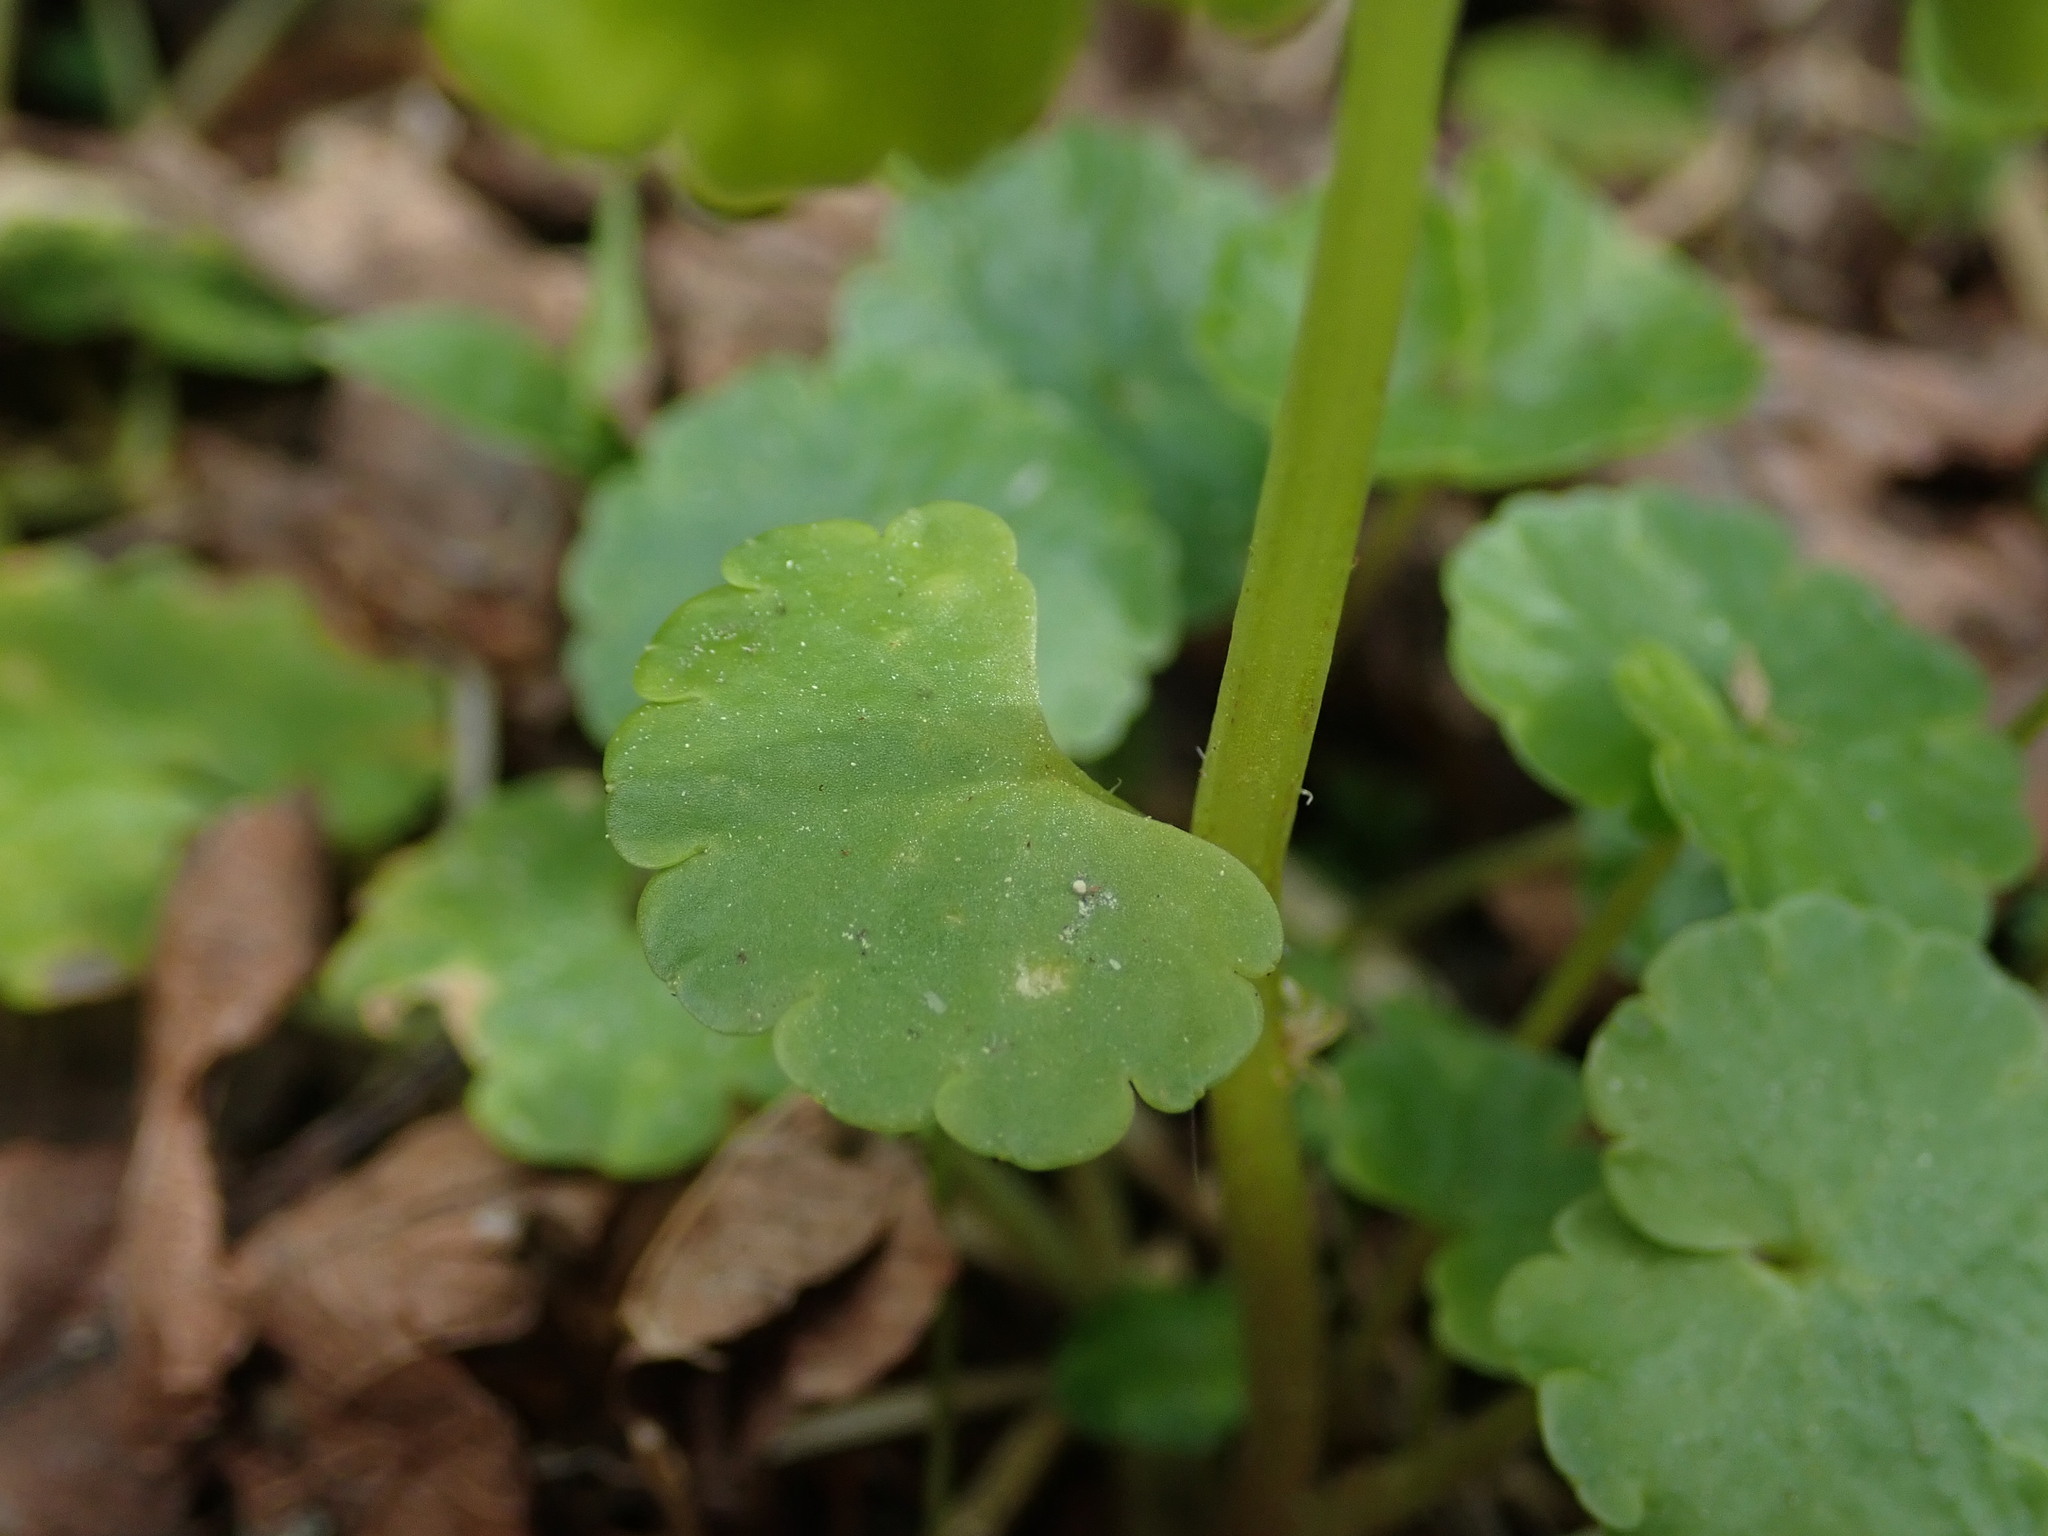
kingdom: Plantae
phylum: Tracheophyta
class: Magnoliopsida
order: Saxifragales
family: Saxifragaceae
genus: Chrysosplenium
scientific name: Chrysosplenium alternifolium
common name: Alternate-leaved golden-saxifrage
